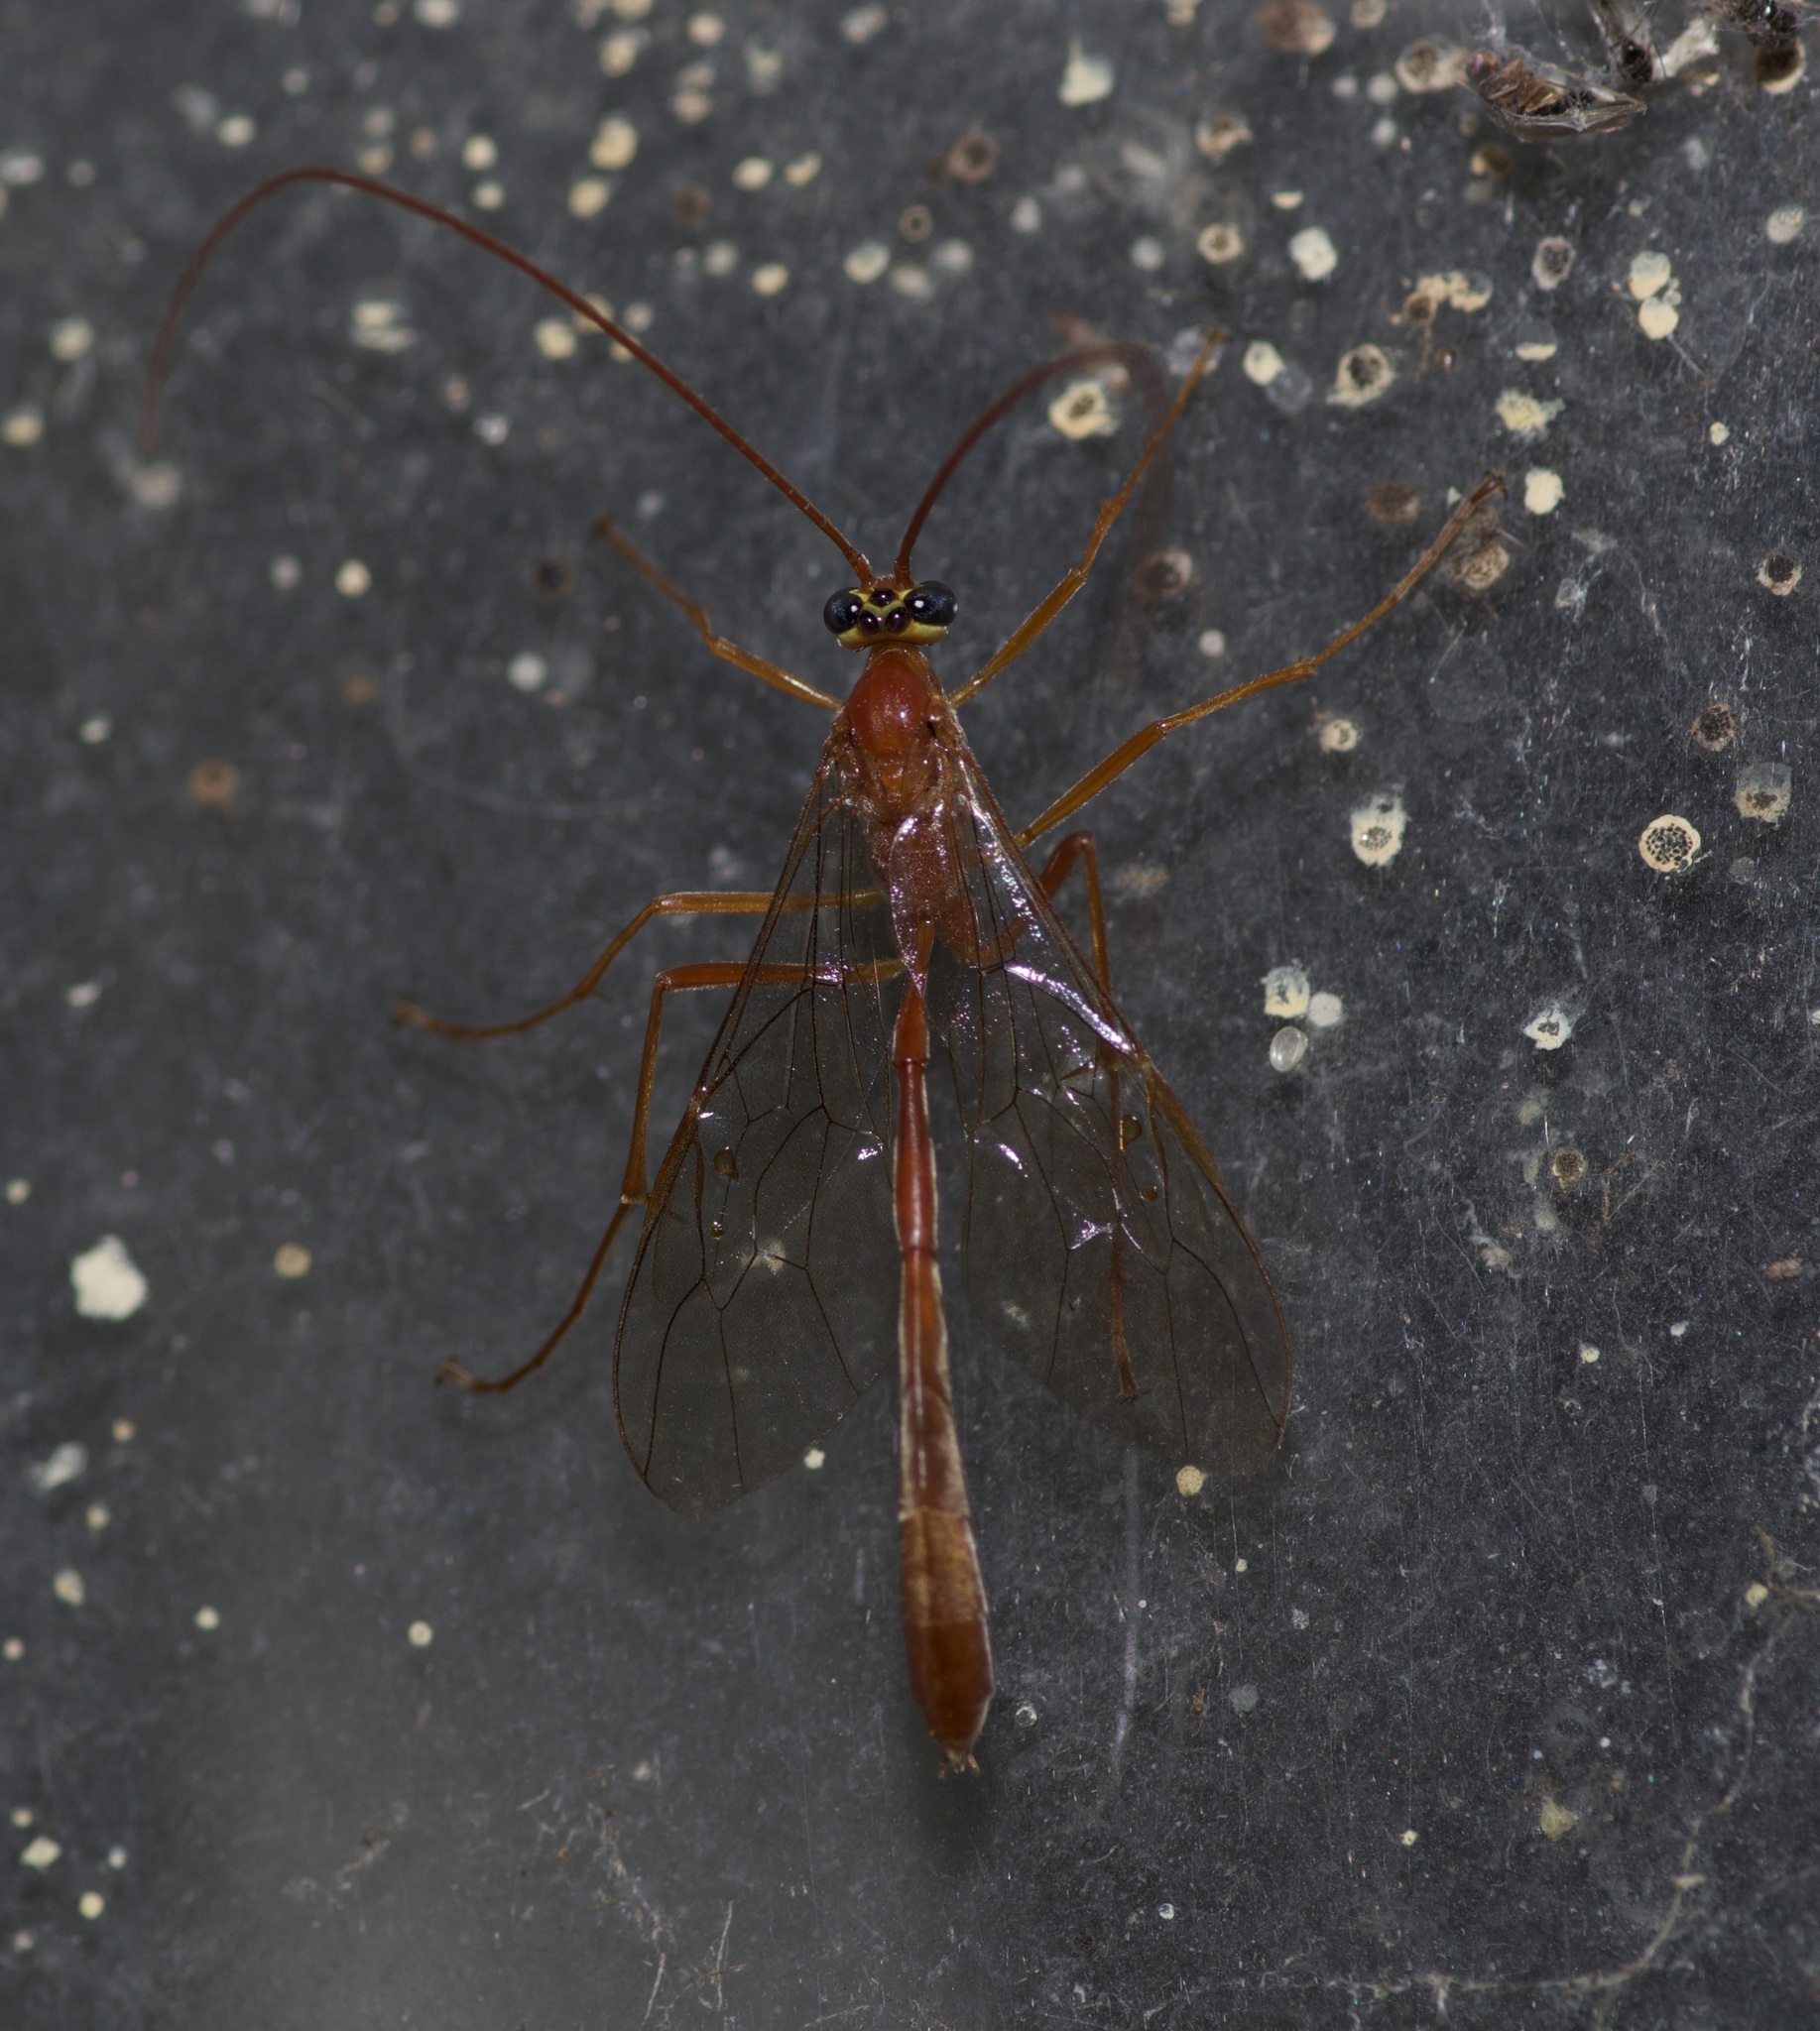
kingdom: Animalia
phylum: Arthropoda
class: Insecta
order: Hymenoptera
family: Ichneumonidae
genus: Enicospilus
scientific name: Enicospilus purgatus
